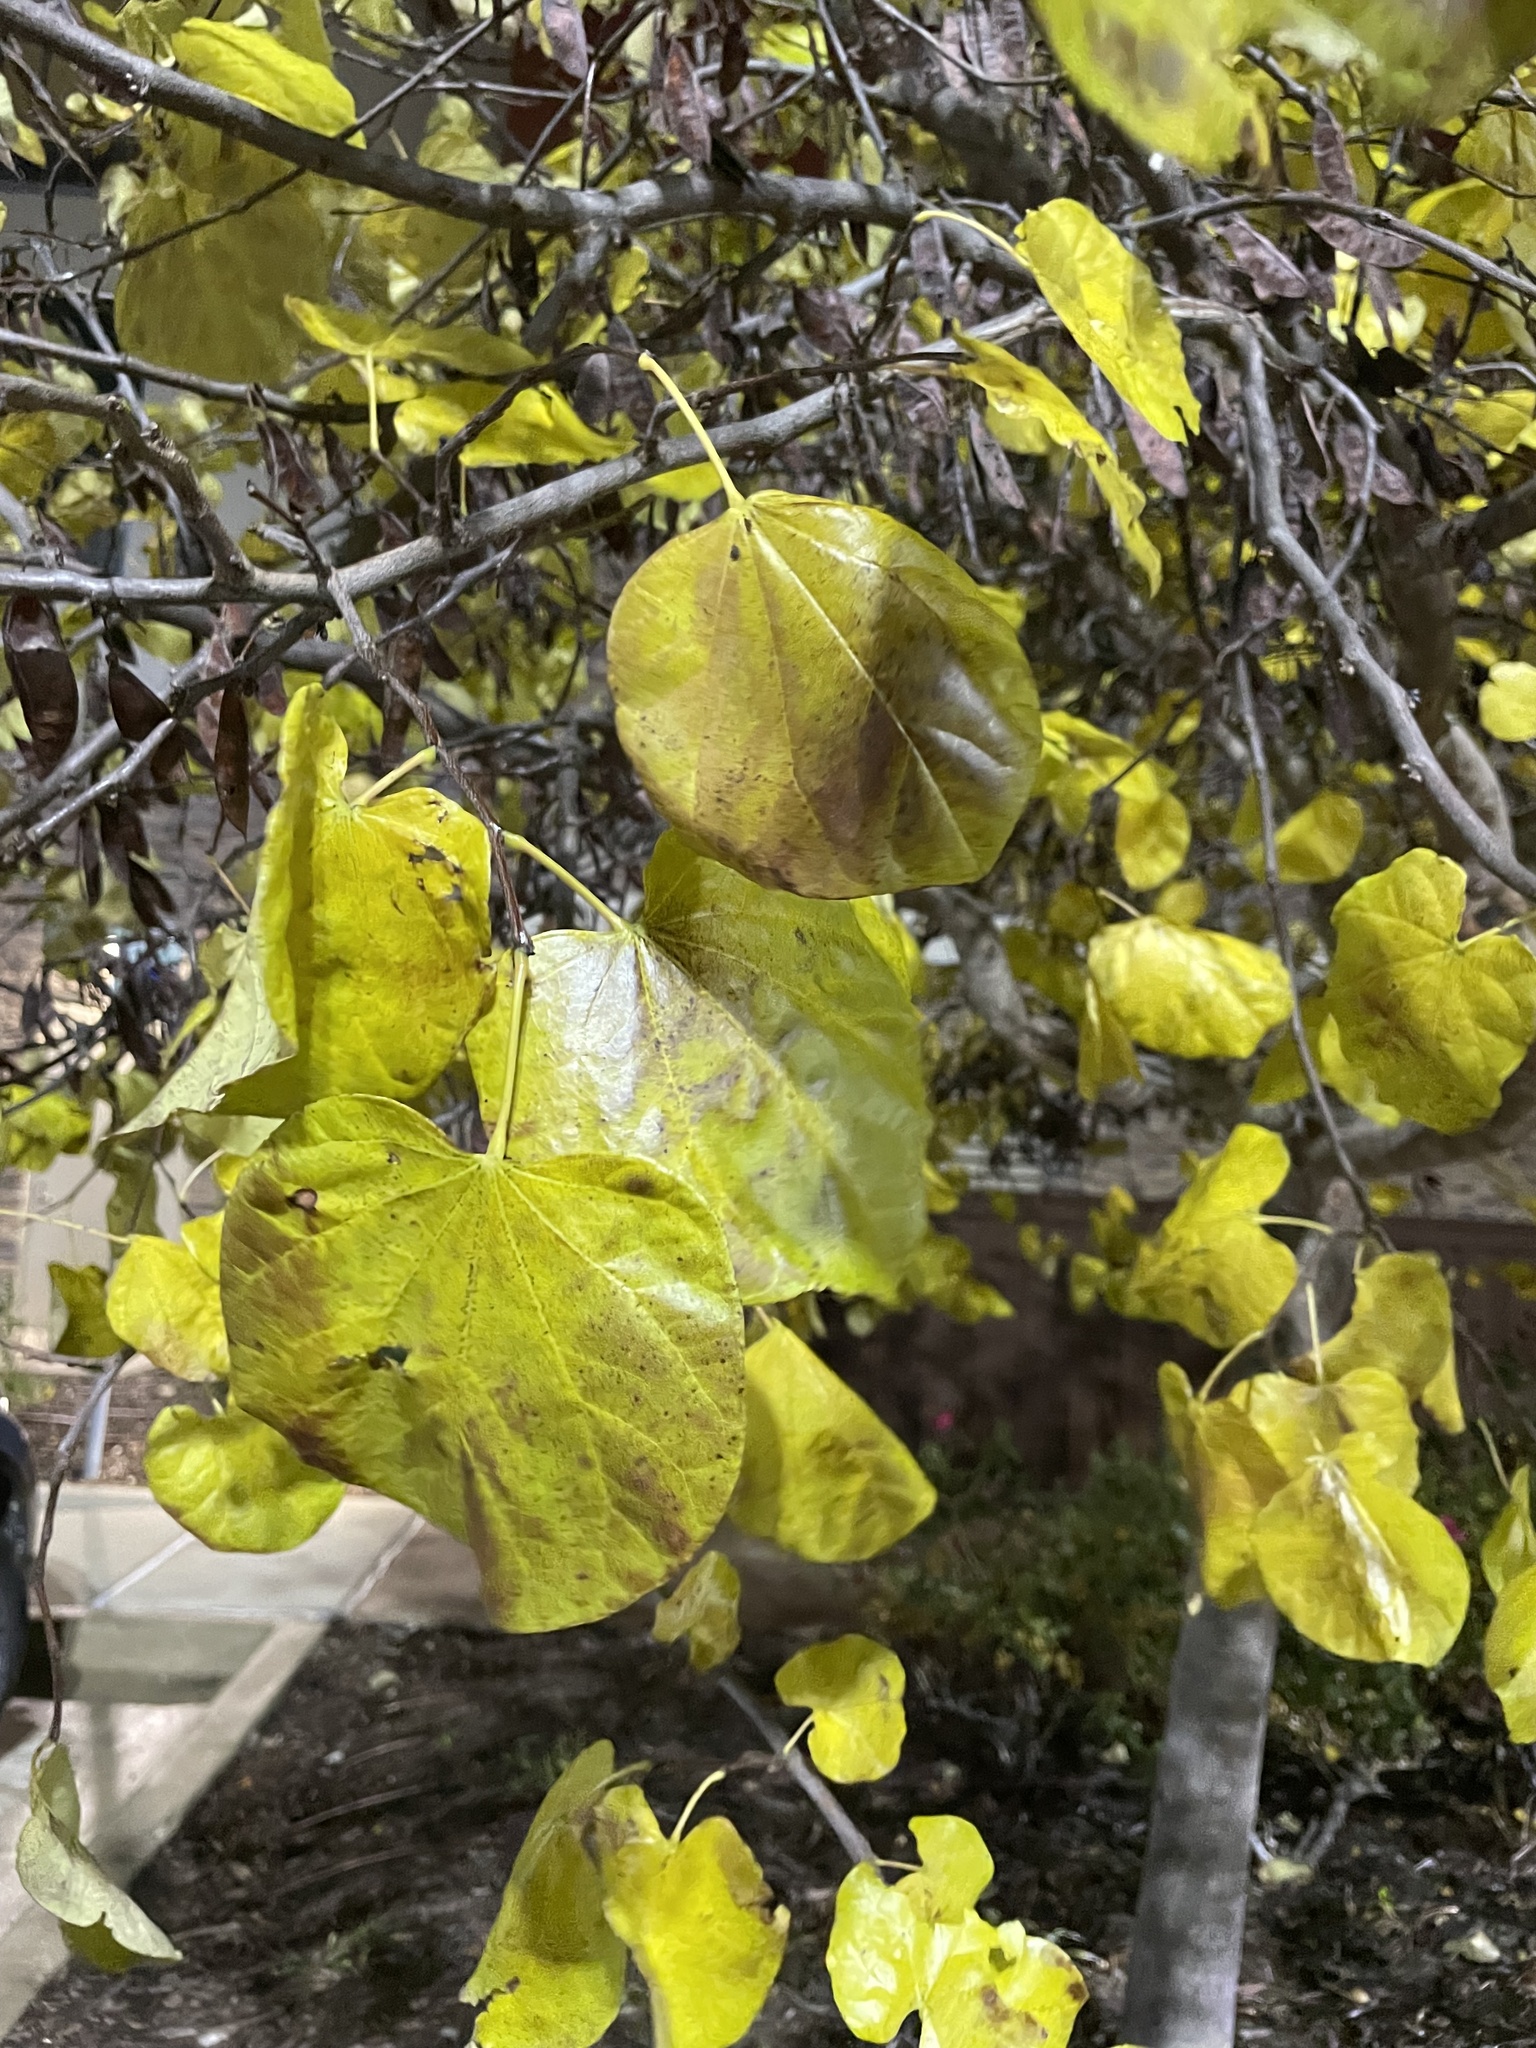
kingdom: Plantae
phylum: Tracheophyta
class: Magnoliopsida
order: Fabales
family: Fabaceae
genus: Cercis
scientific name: Cercis canadensis
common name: Eastern redbud
